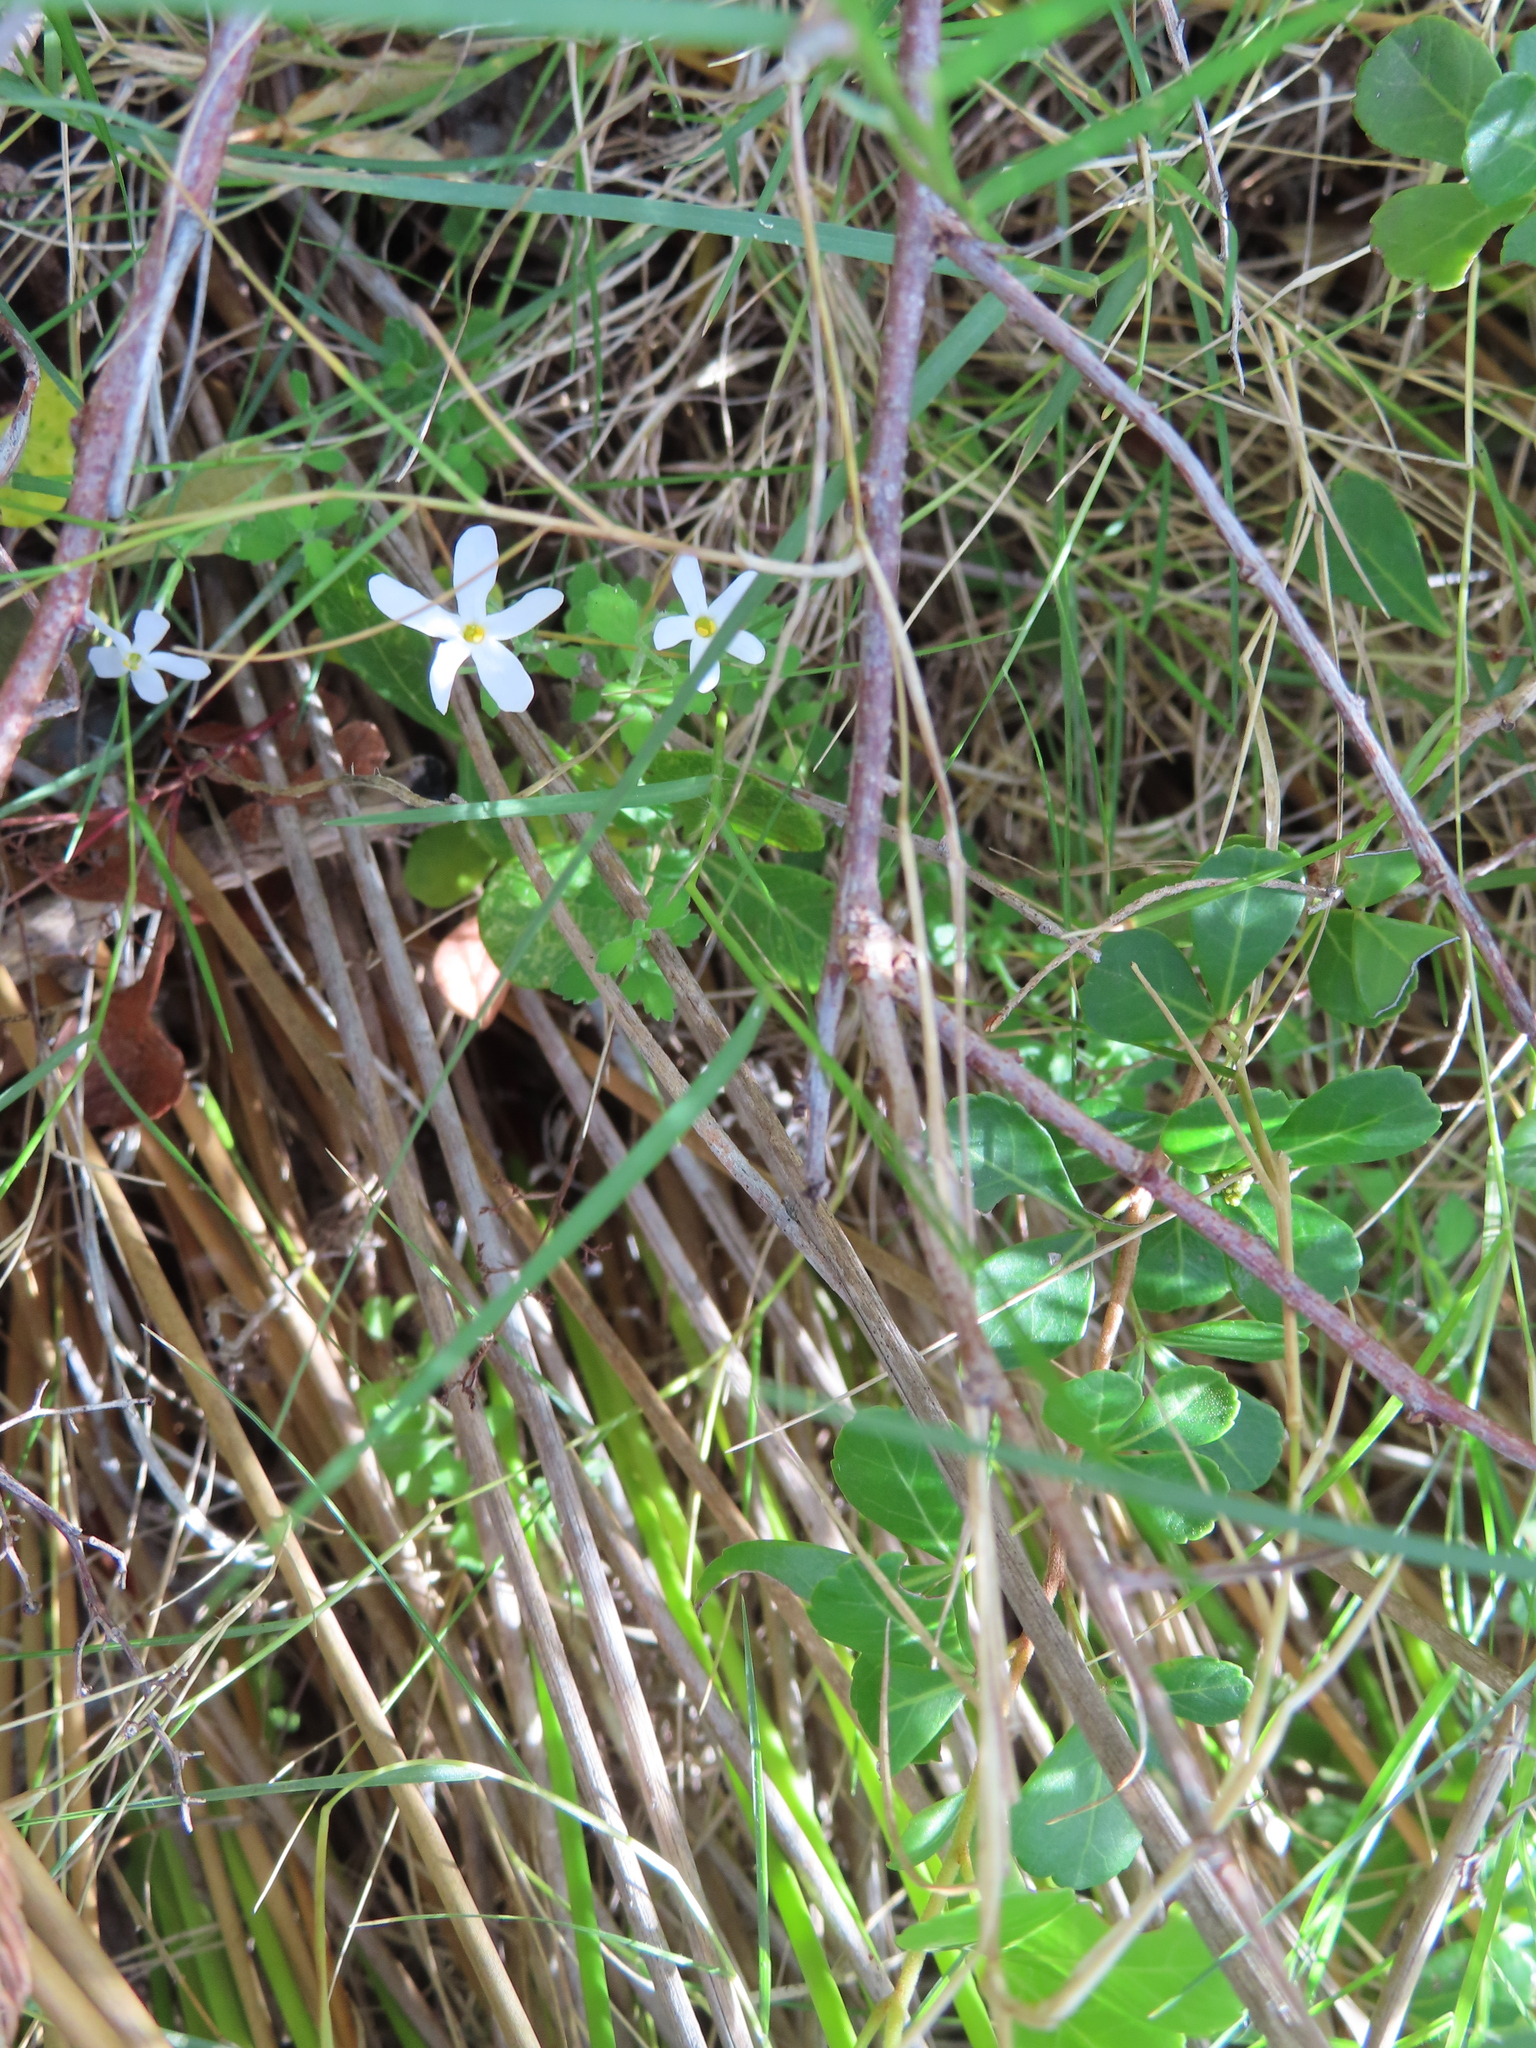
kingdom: Plantae
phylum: Tracheophyta
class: Magnoliopsida
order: Lamiales
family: Scrophulariaceae
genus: Chaenostoma
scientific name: Chaenostoma hispidum
